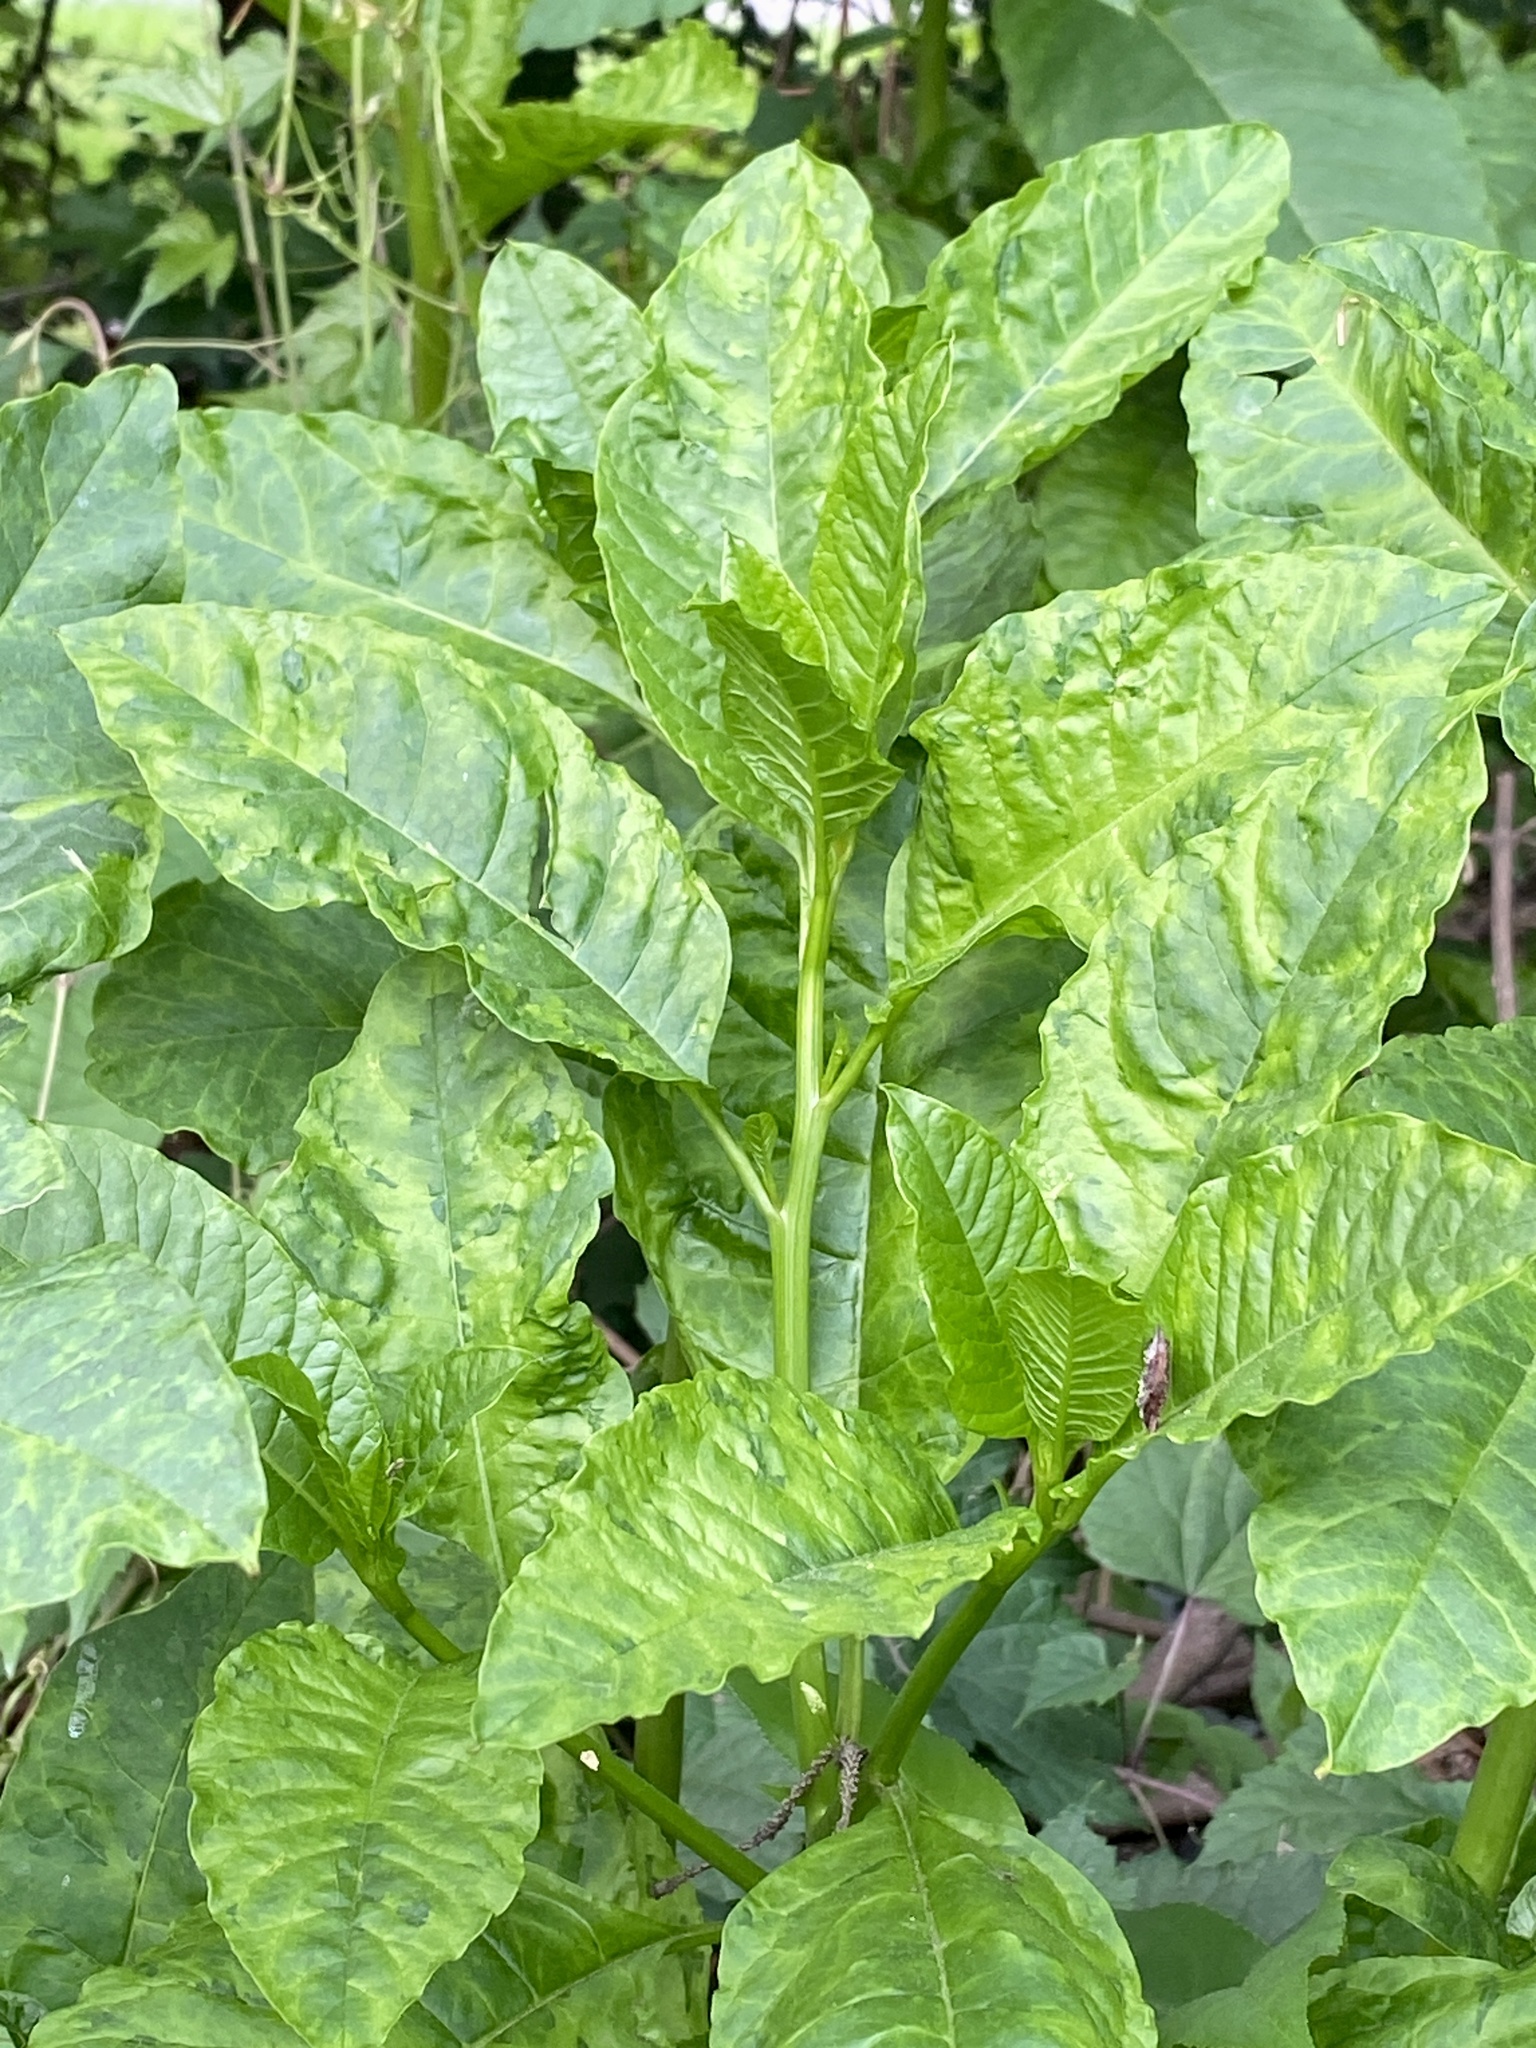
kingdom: Viruses
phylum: Pisuviricota
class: Stelpaviricetes
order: Patatavirales
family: Potyviridae
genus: Potyvirus
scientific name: Potyvirus Pokeweed mosaic virus
